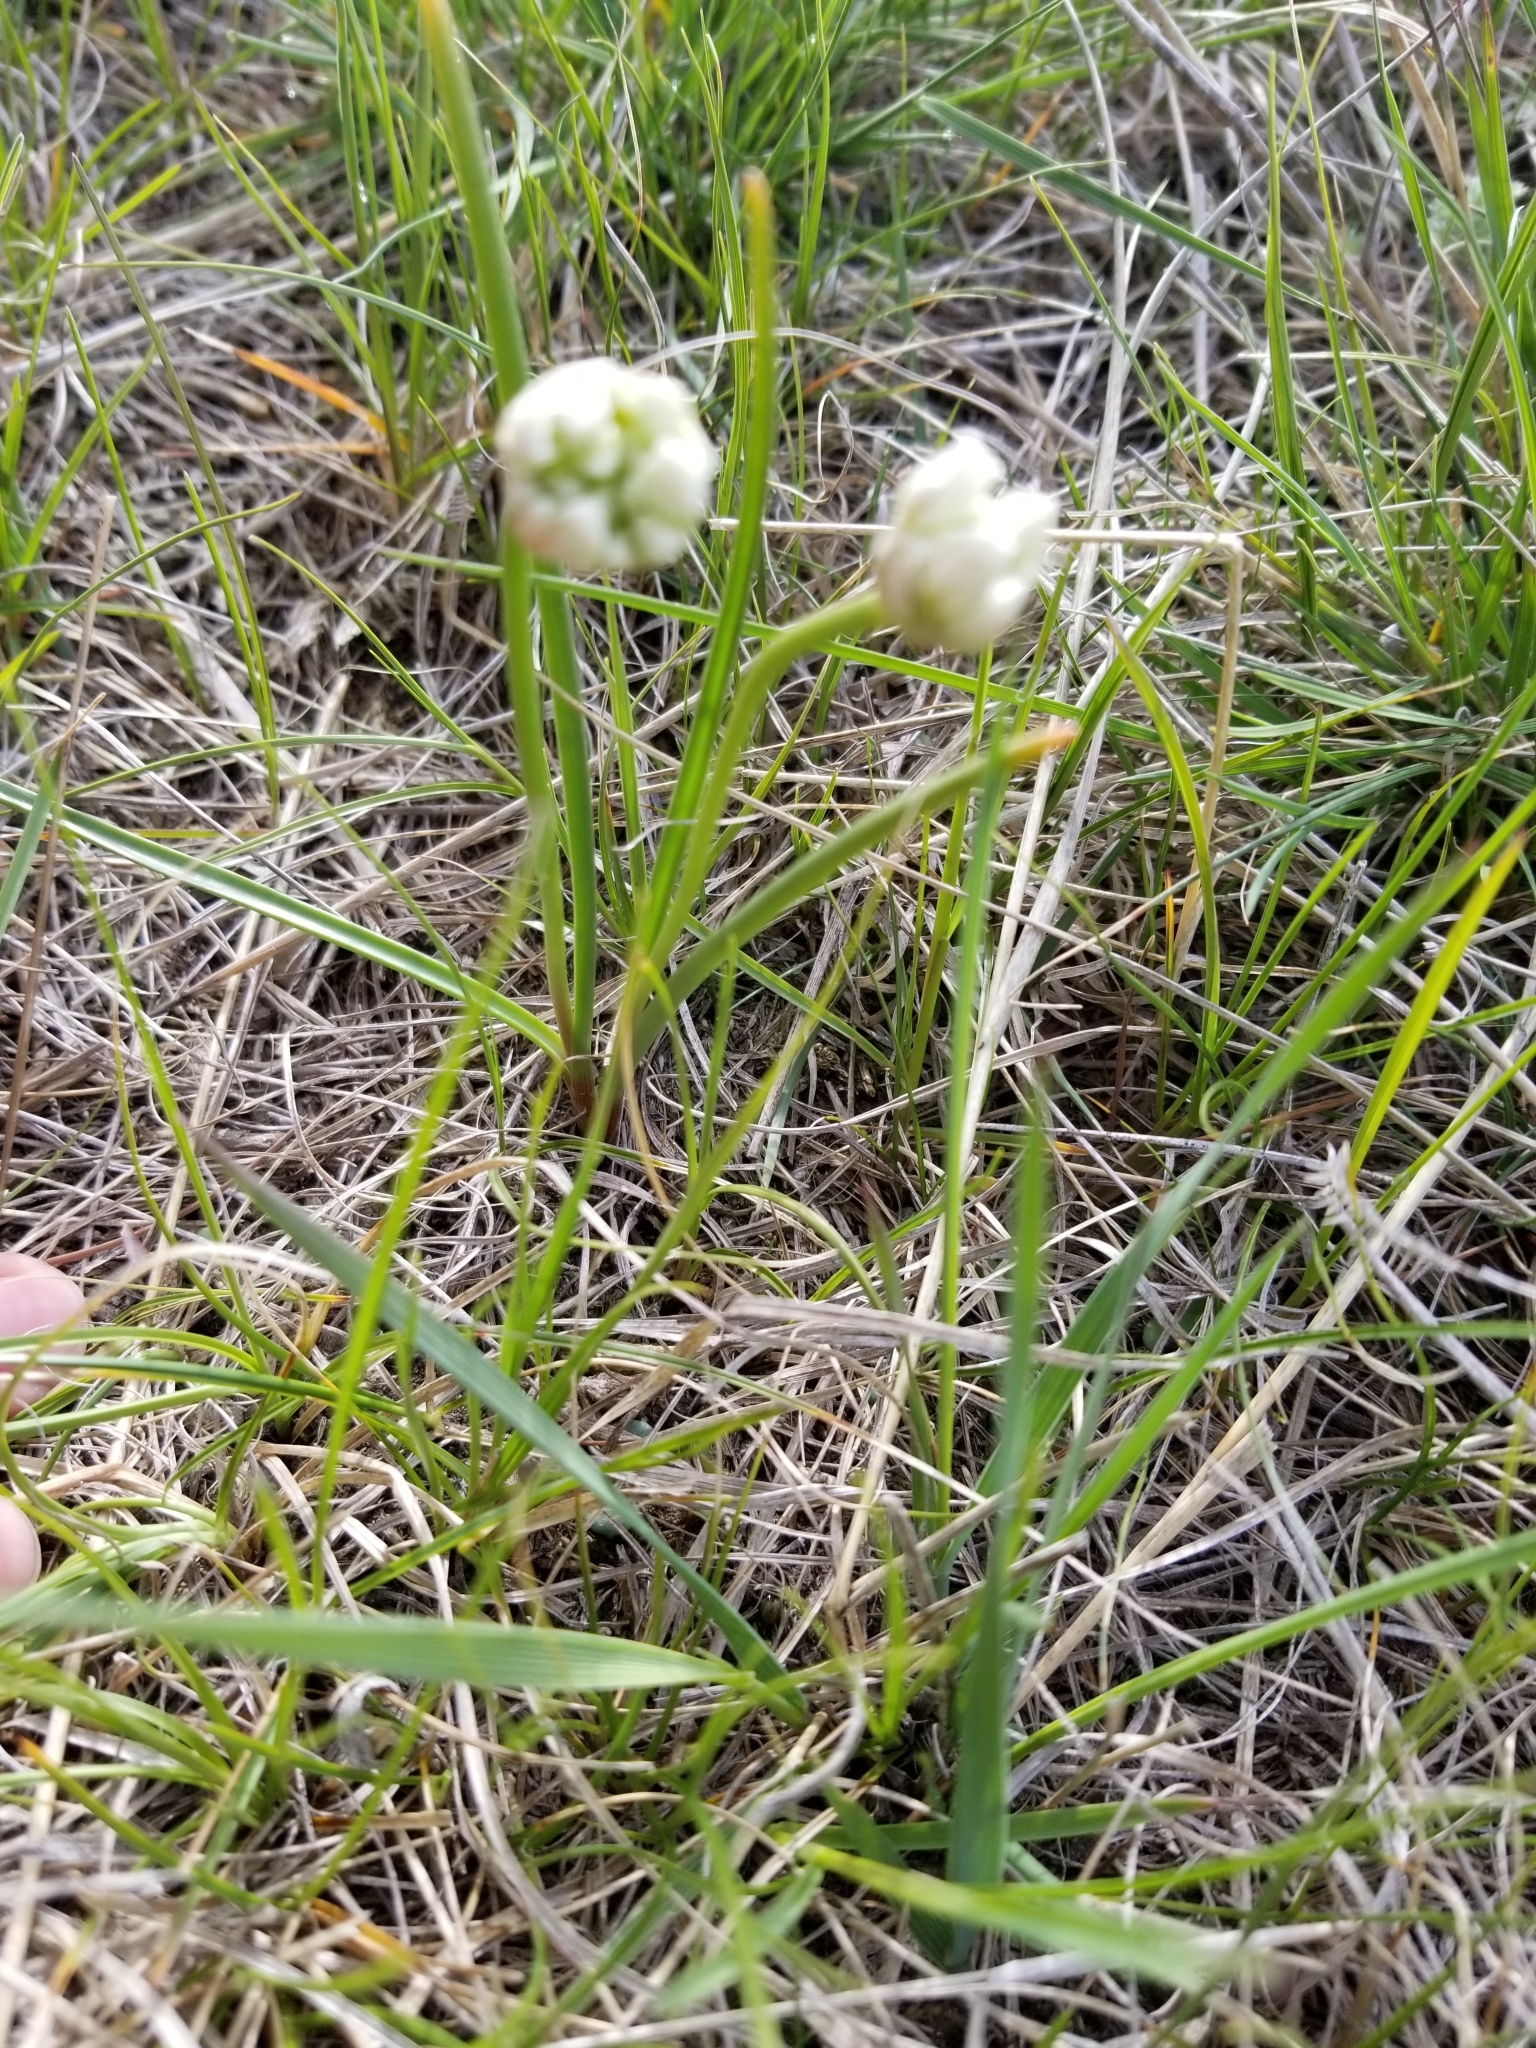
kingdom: Plantae
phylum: Tracheophyta
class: Liliopsida
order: Asparagales
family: Amaryllidaceae
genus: Allium
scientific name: Allium textile
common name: Prairie onion
